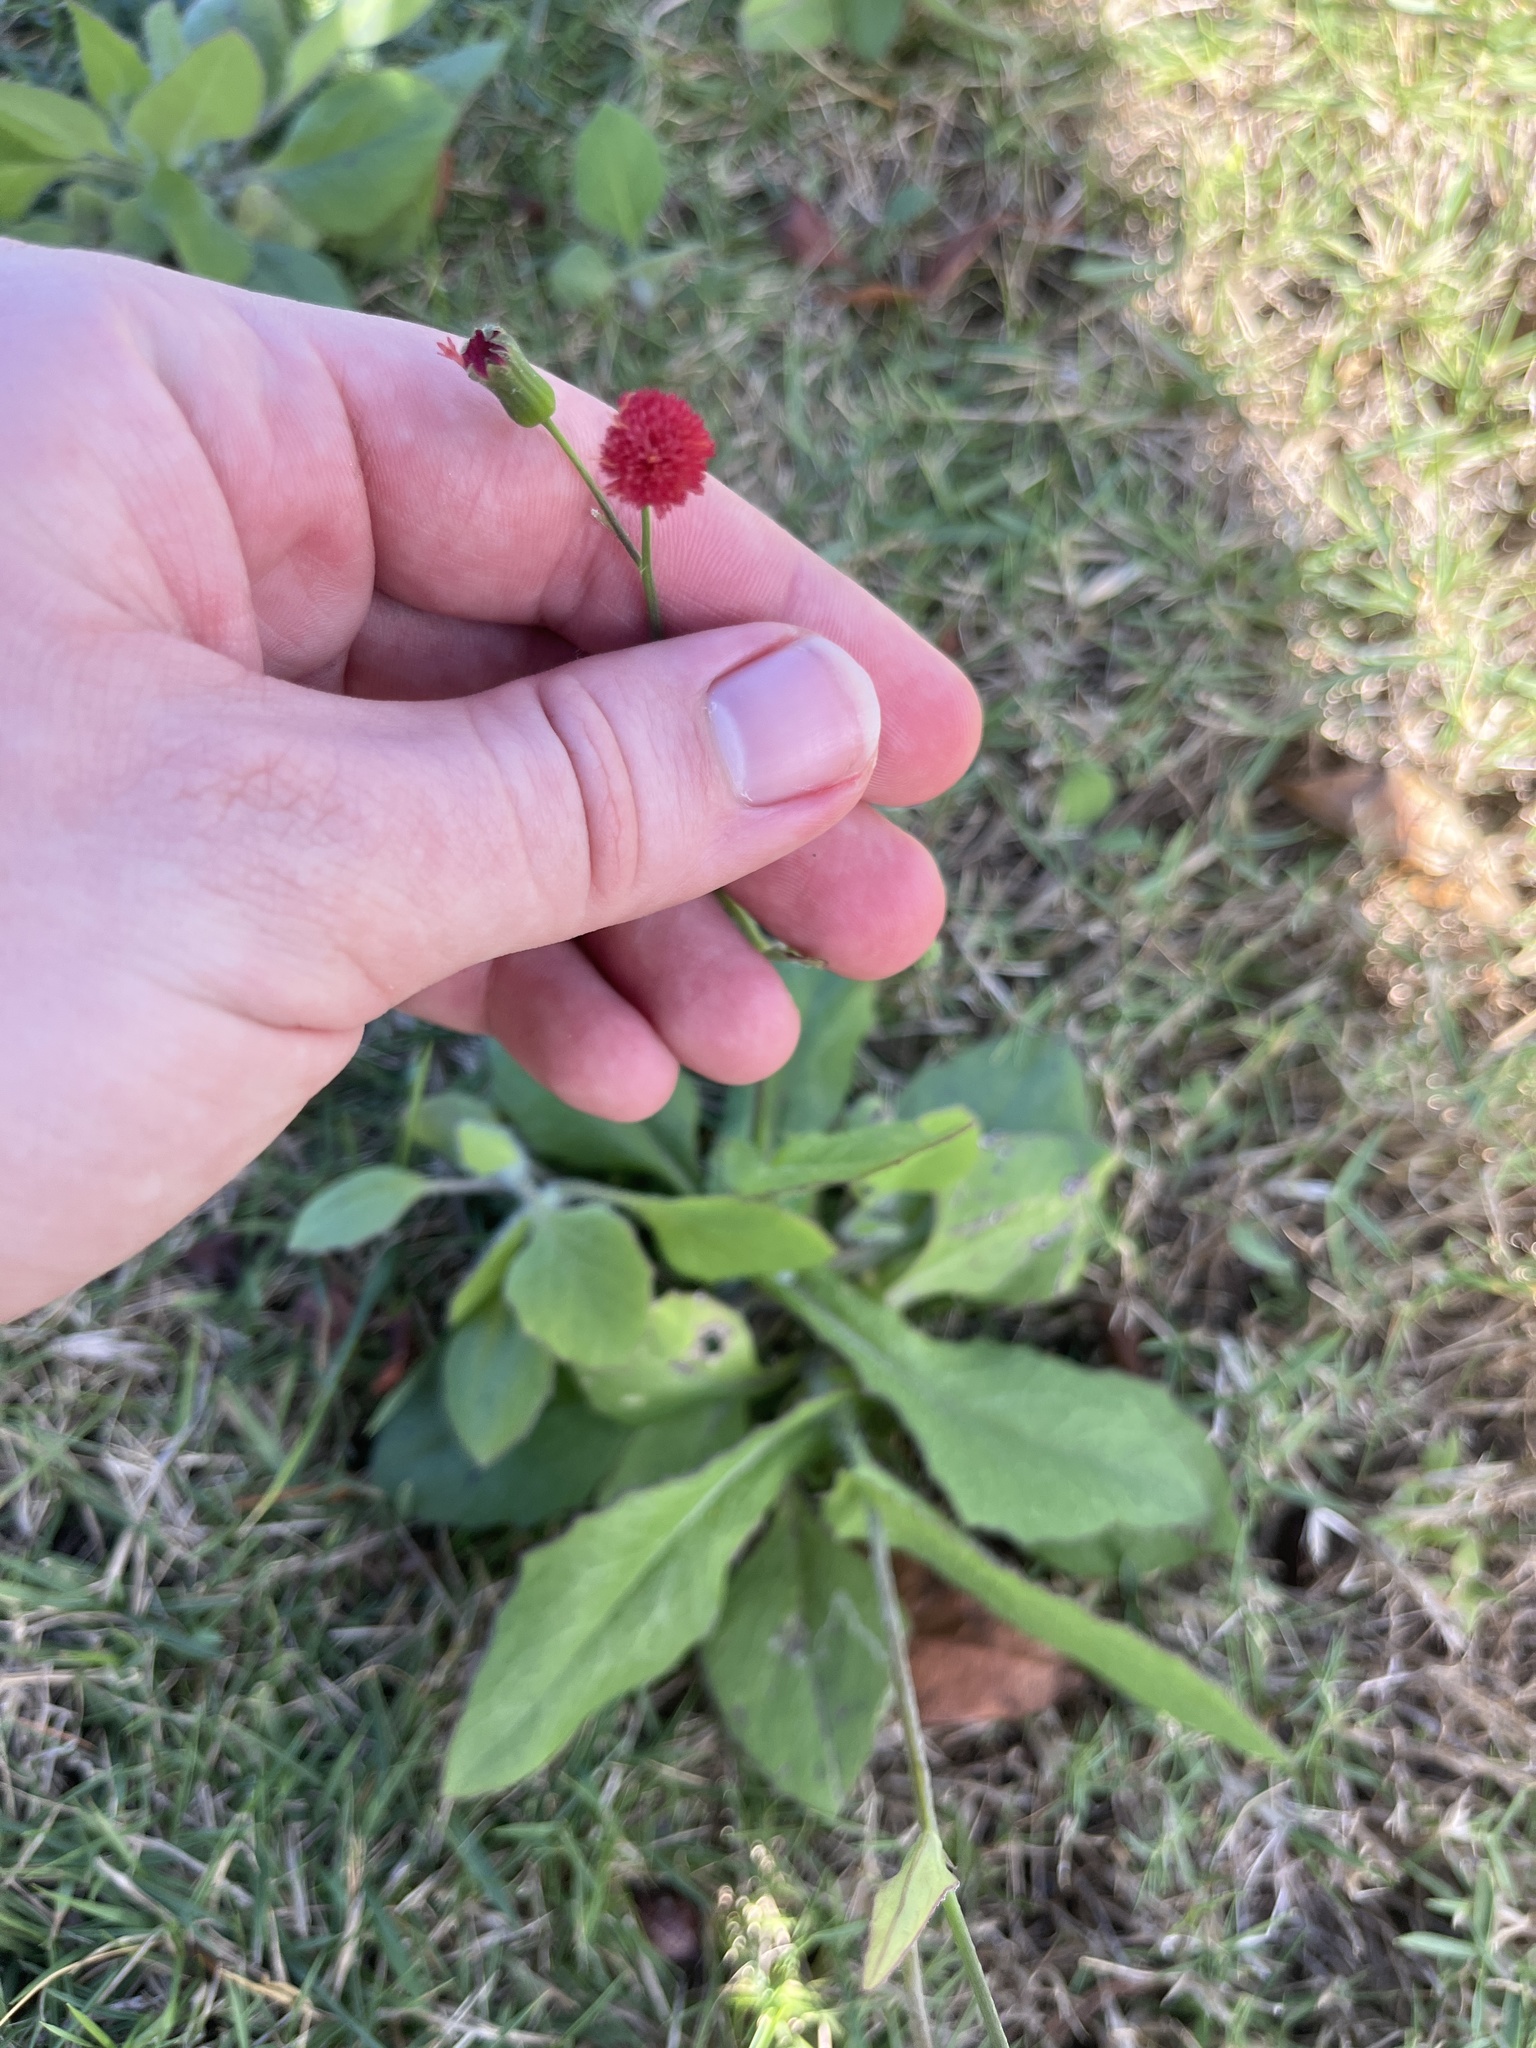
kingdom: Plantae
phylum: Tracheophyta
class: Magnoliopsida
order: Asterales
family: Asteraceae
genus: Emilia
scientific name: Emilia fosbergii
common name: Florida tasselflower
